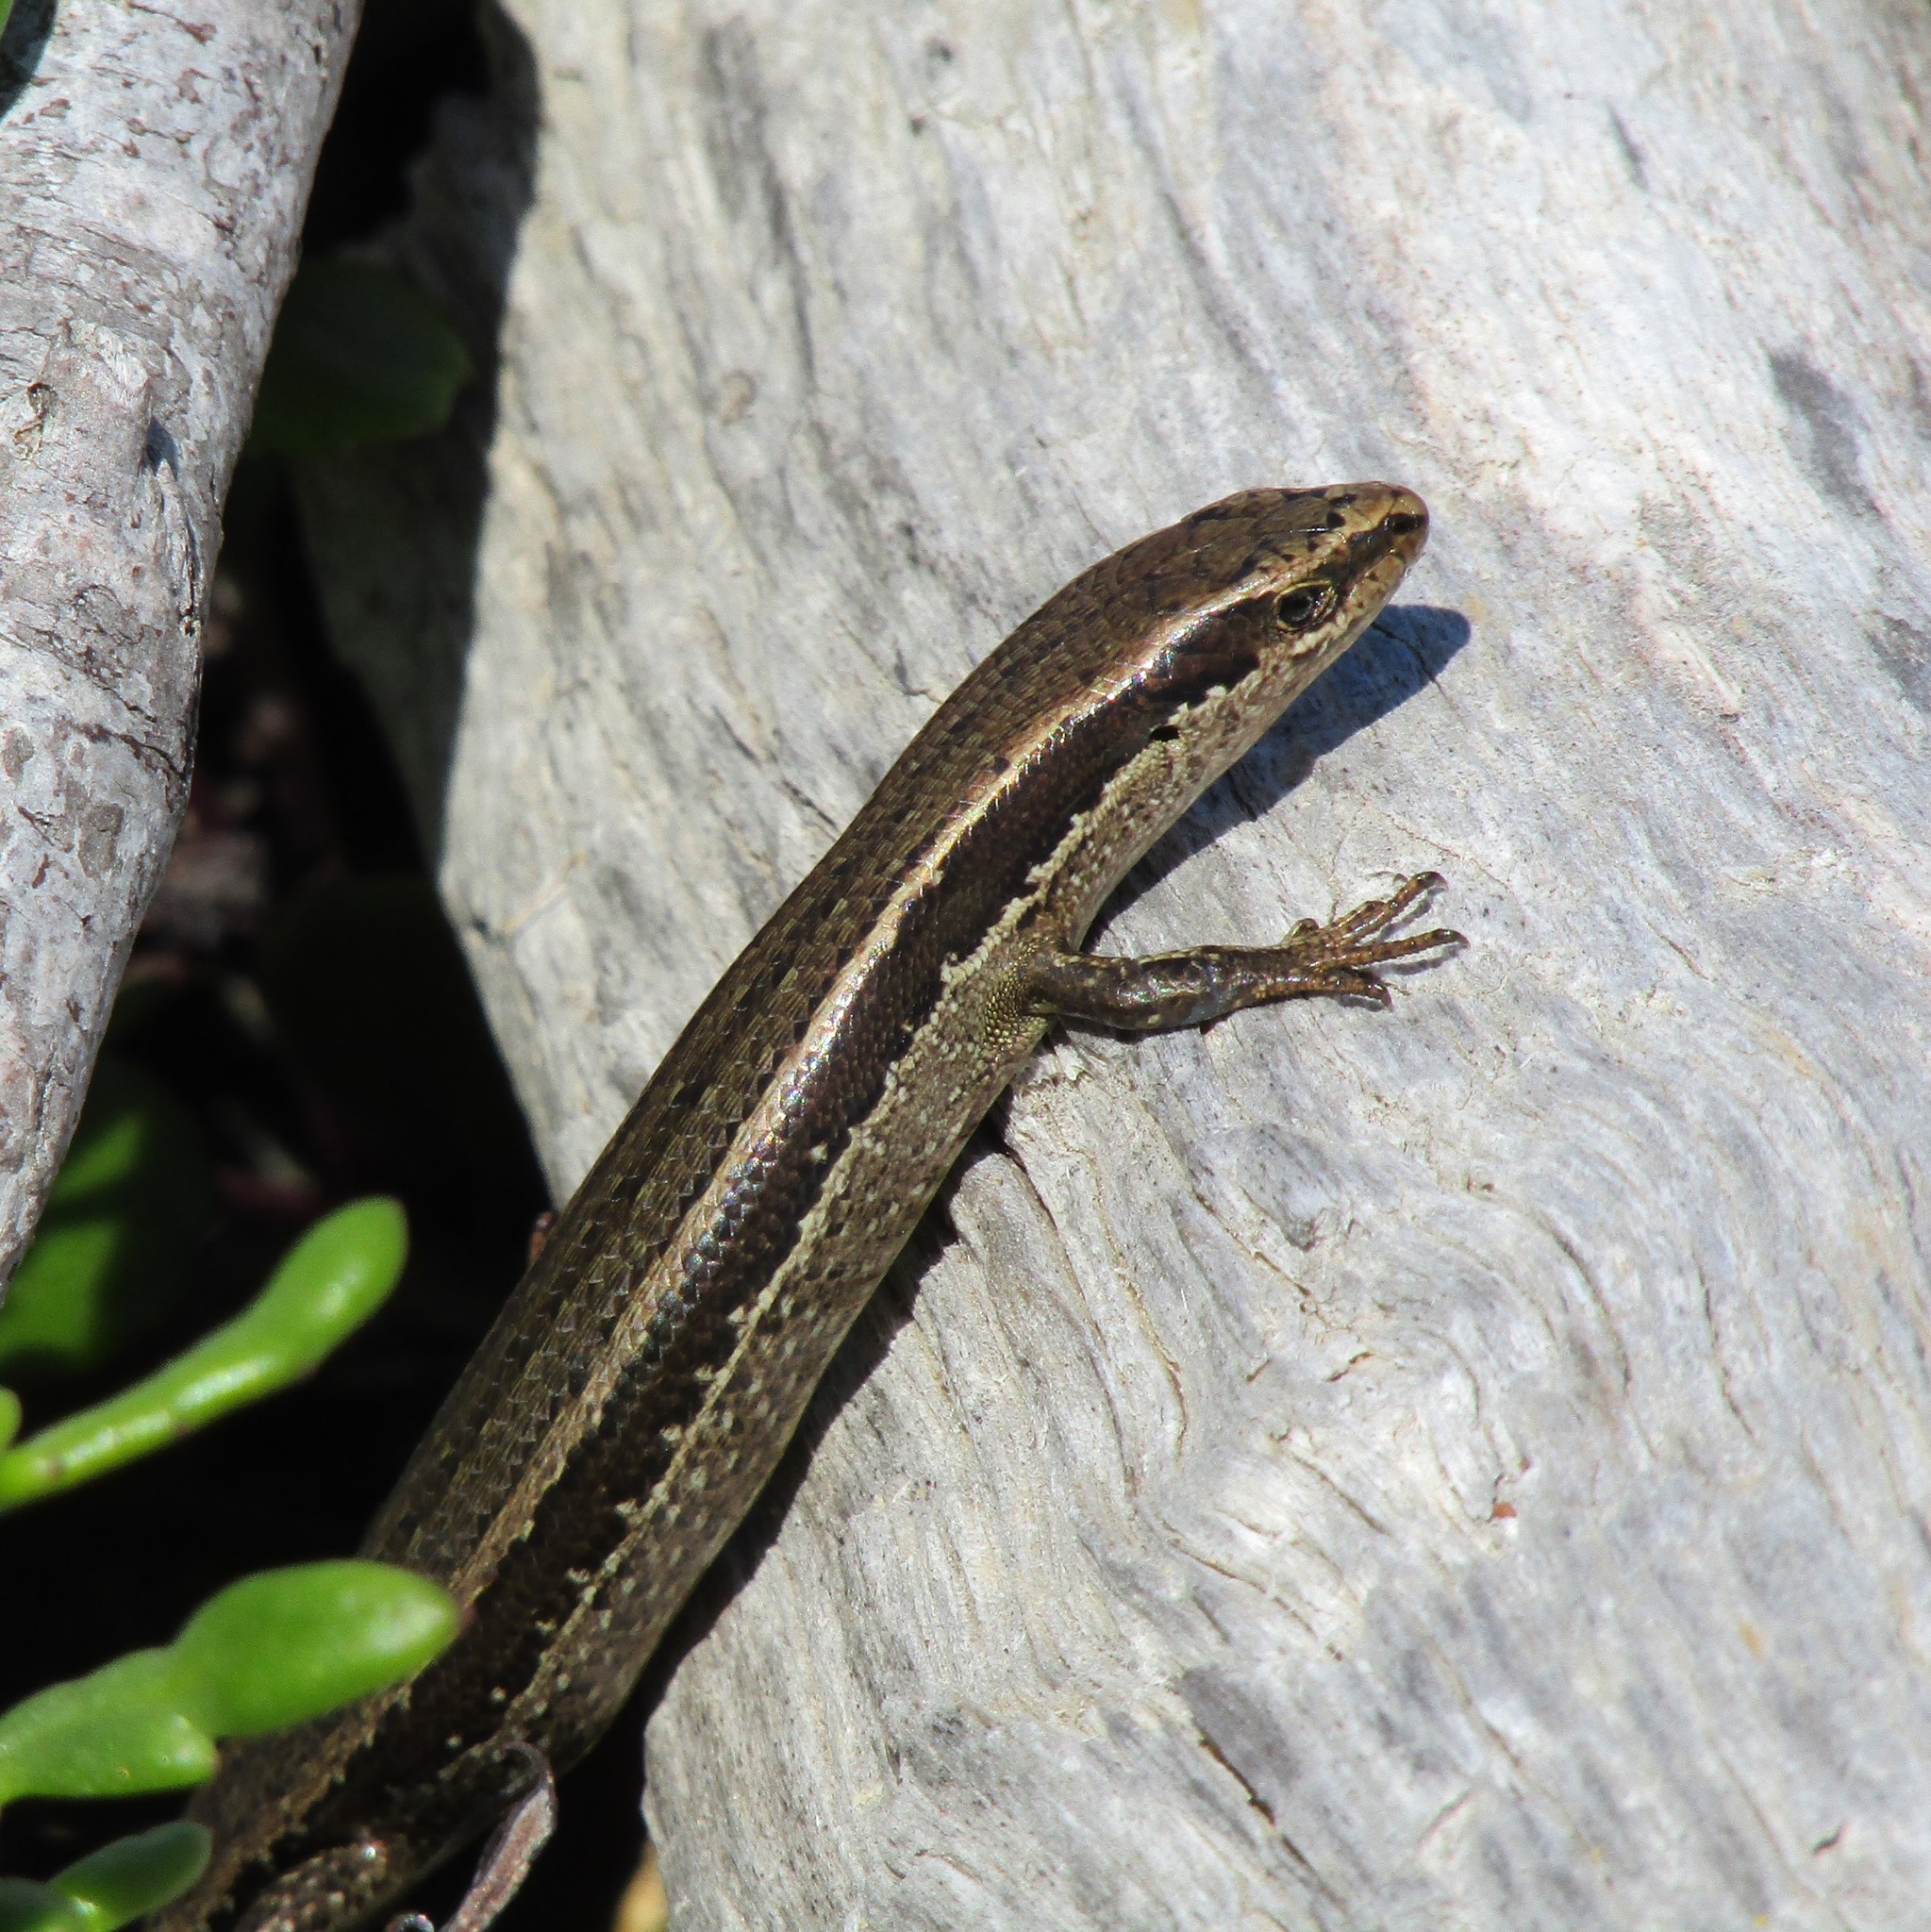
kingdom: Animalia
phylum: Chordata
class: Squamata
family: Scincidae
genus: Oligosoma
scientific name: Oligosoma polychroma
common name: Common new zealand skink
